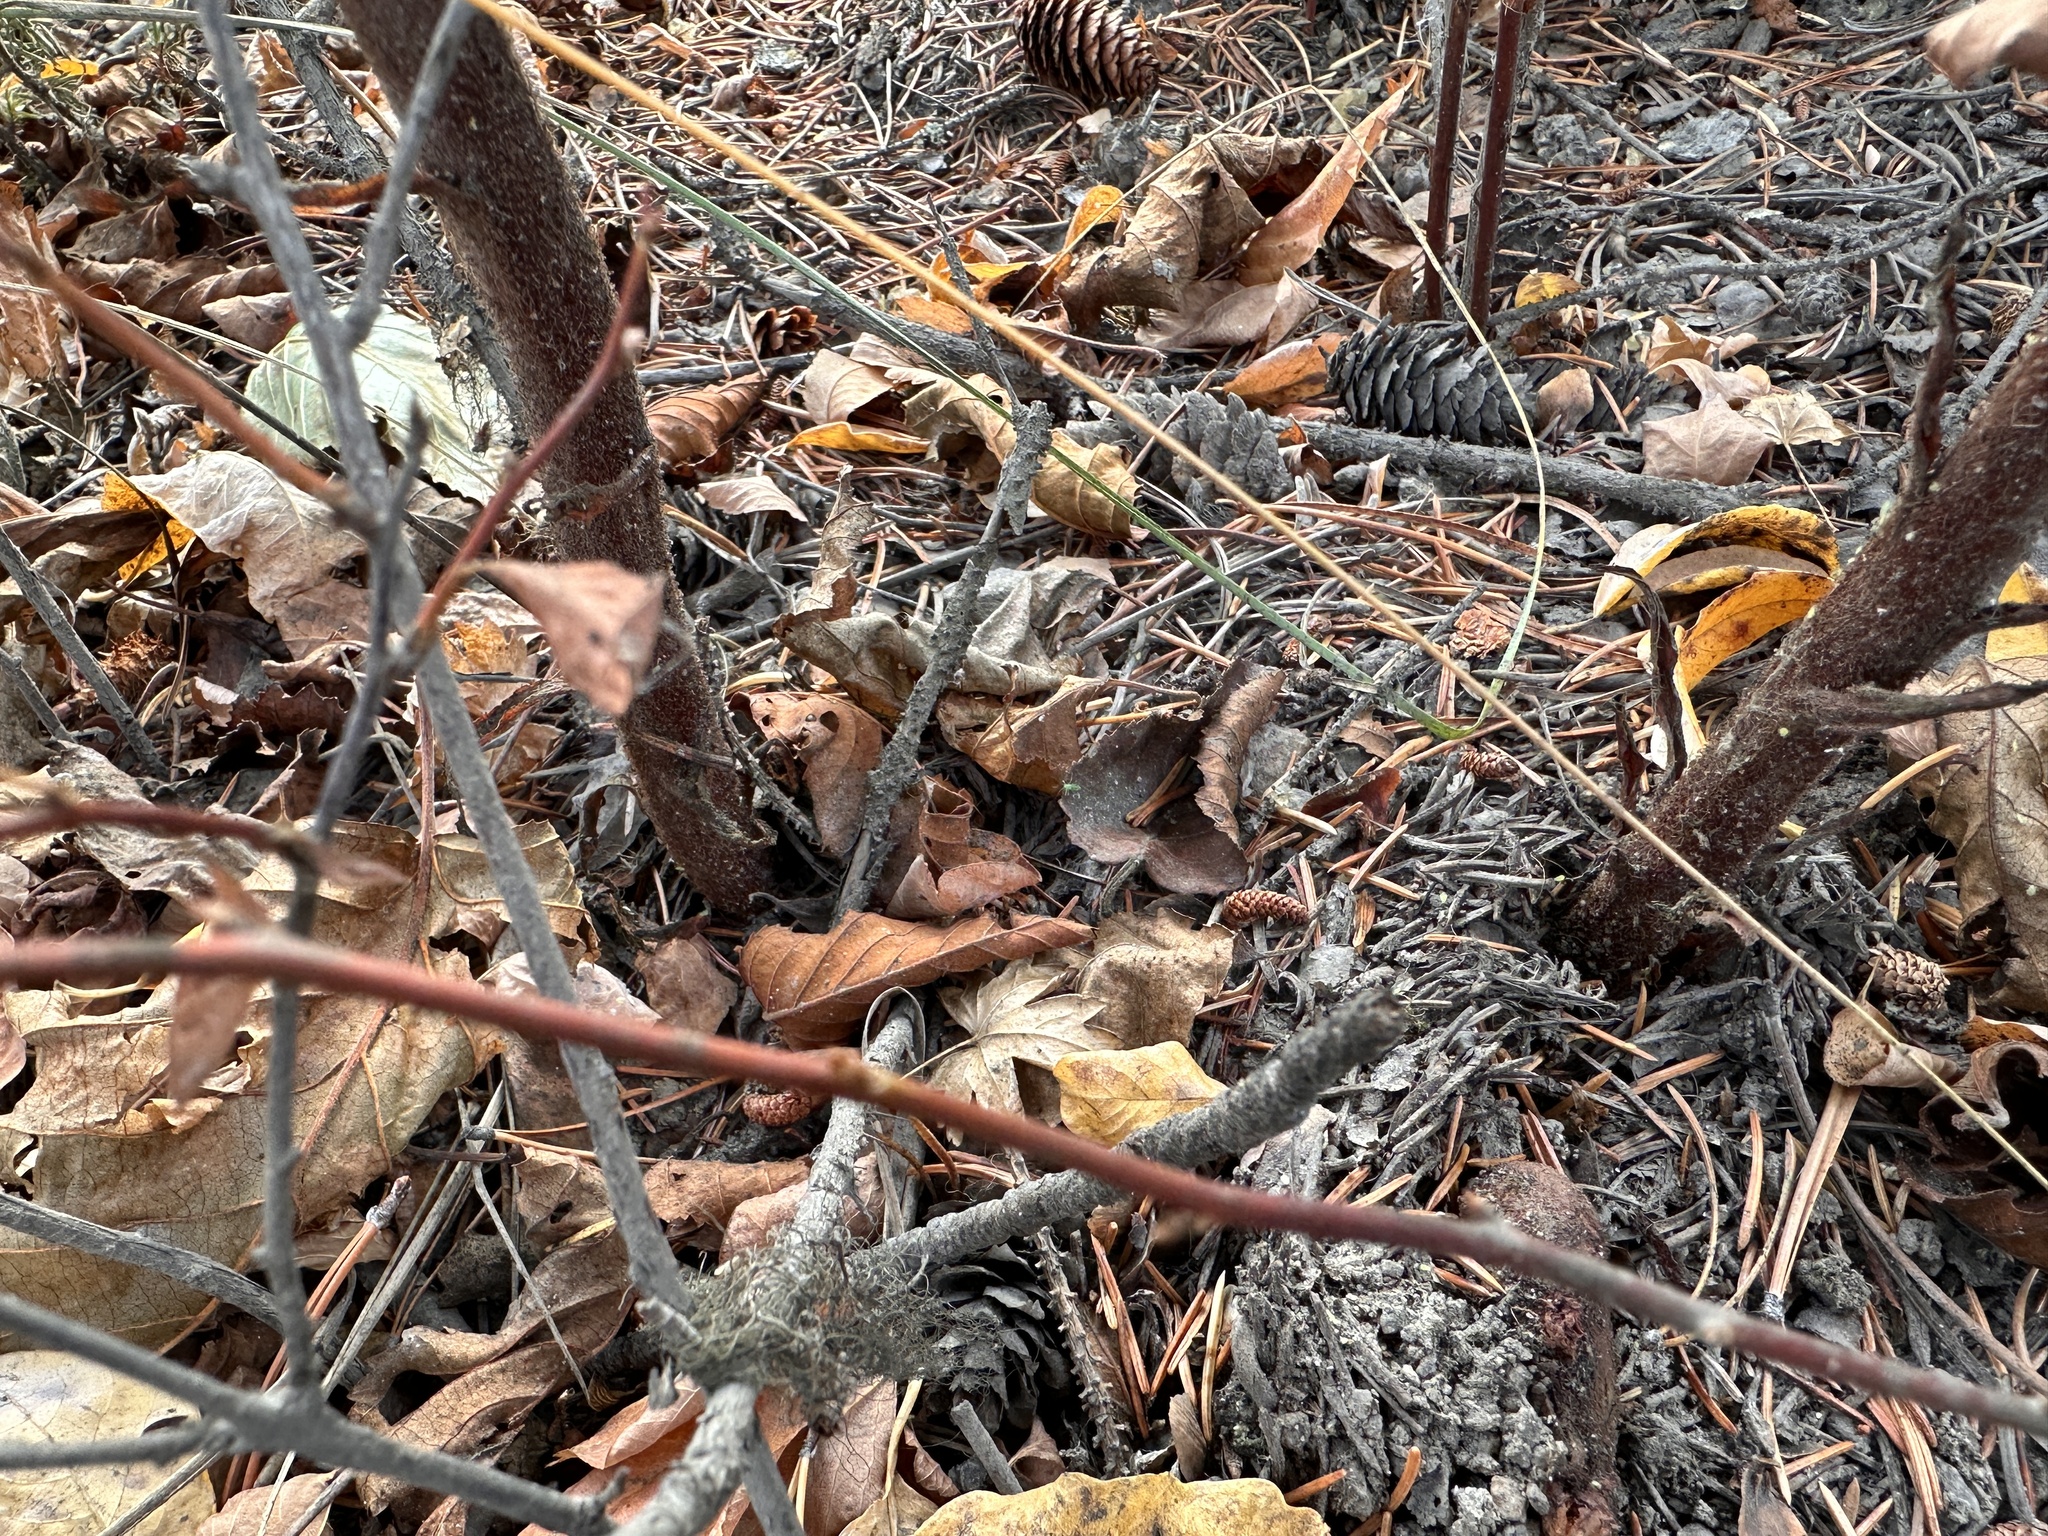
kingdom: Plantae
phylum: Tracheophyta
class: Magnoliopsida
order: Ericales
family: Ericaceae
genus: Pterospora
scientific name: Pterospora andromedea
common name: Giant bird's-nest
